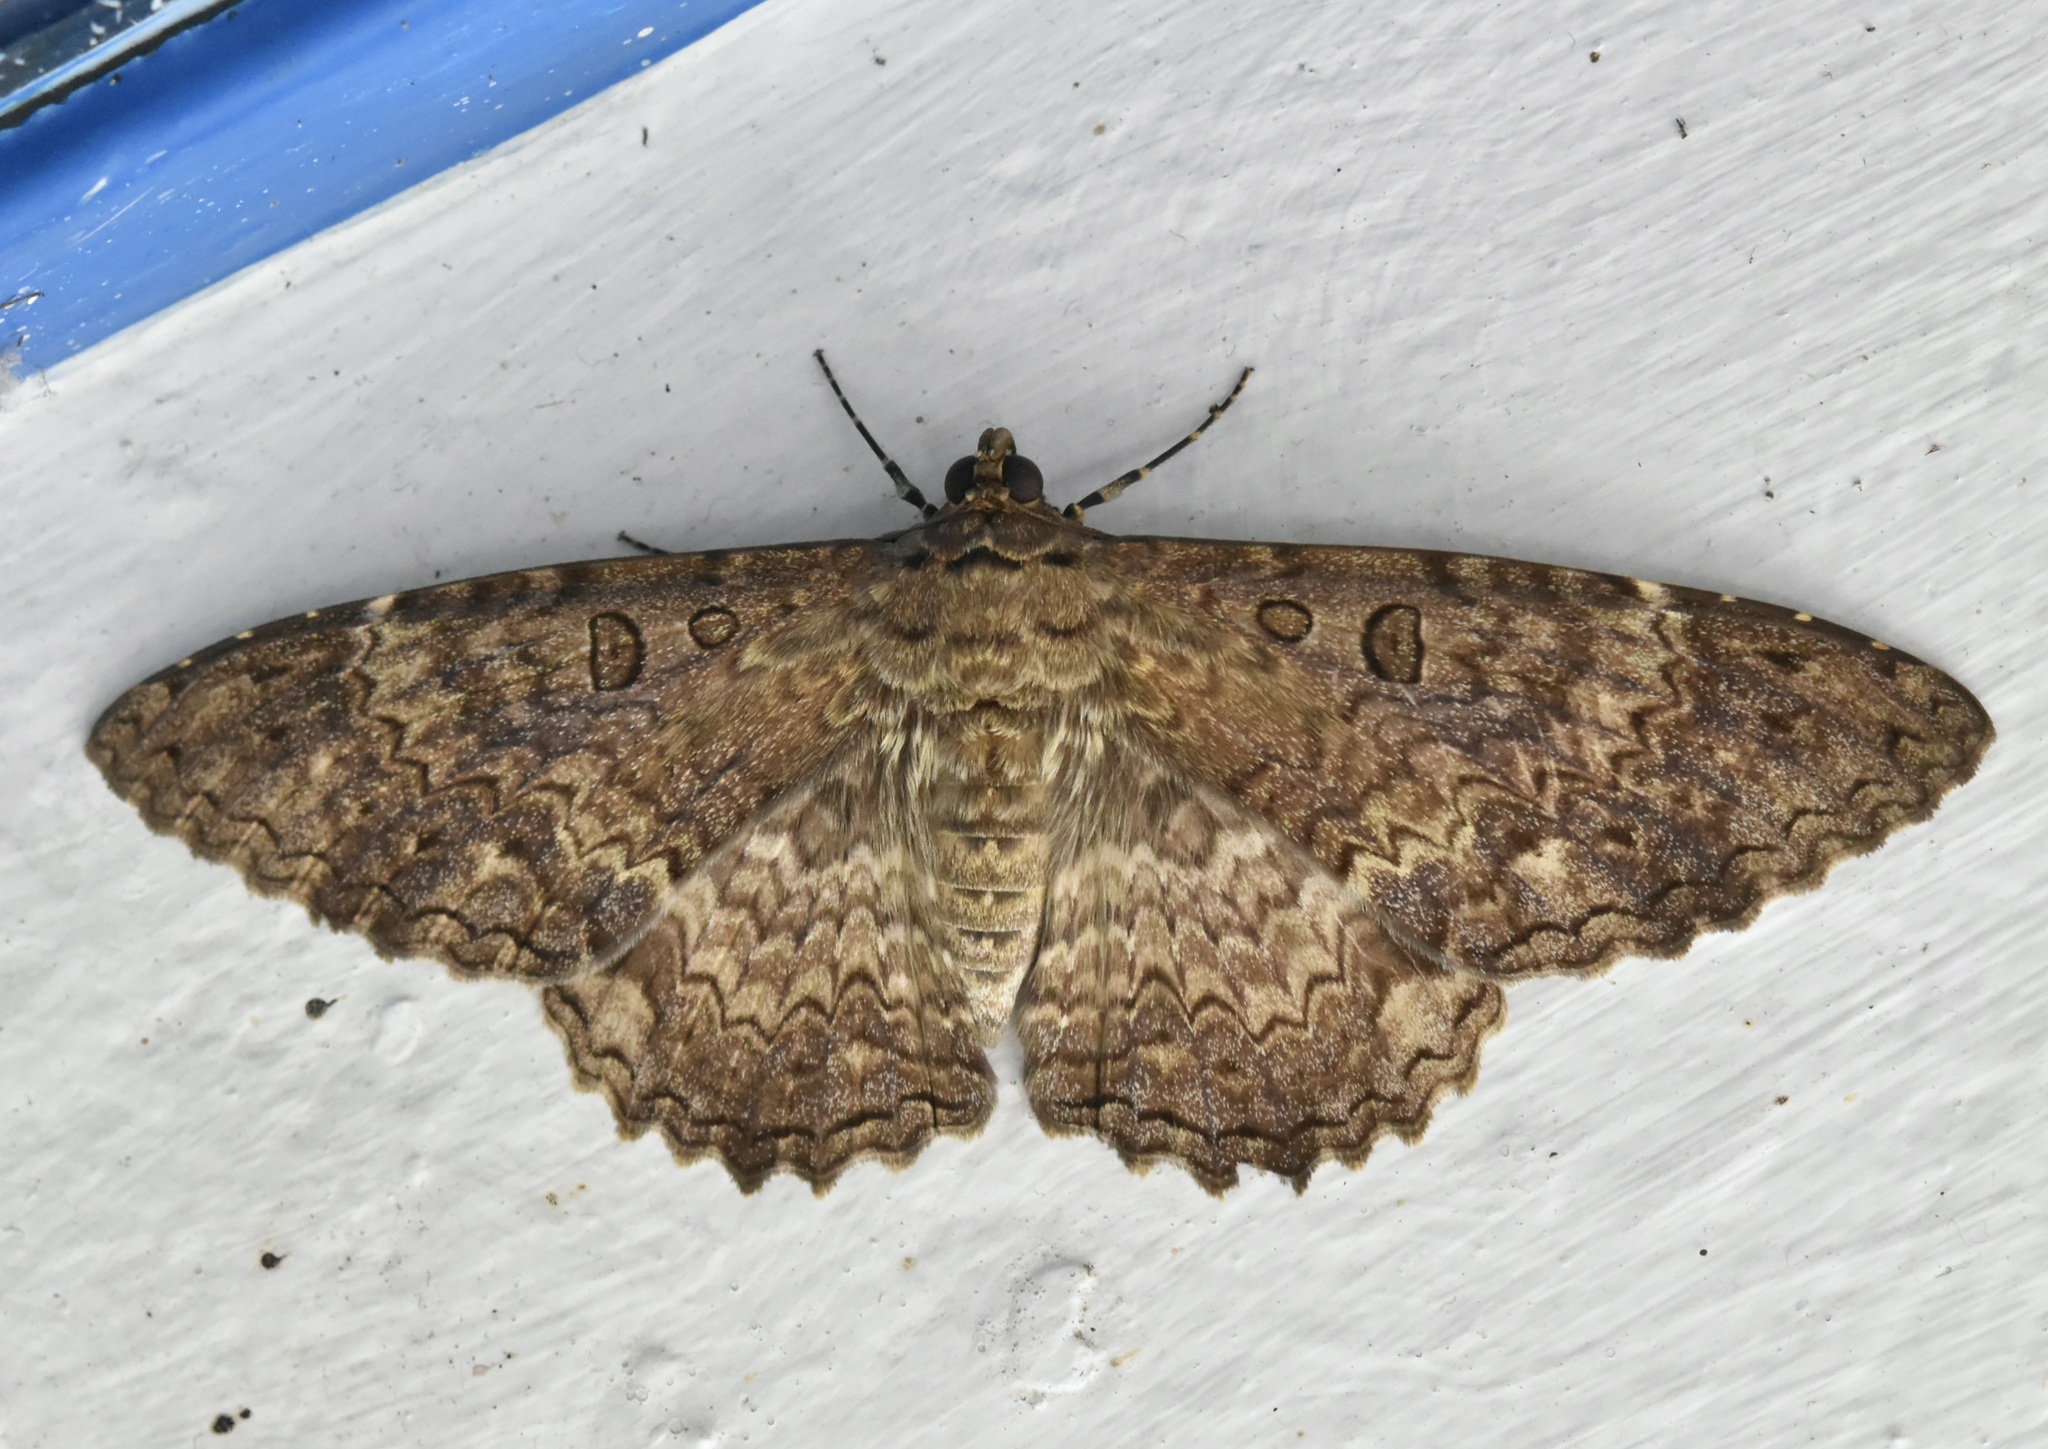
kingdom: Animalia
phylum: Arthropoda
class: Insecta
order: Lepidoptera
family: Erebidae
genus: Feigeria
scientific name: Feigeria scops
